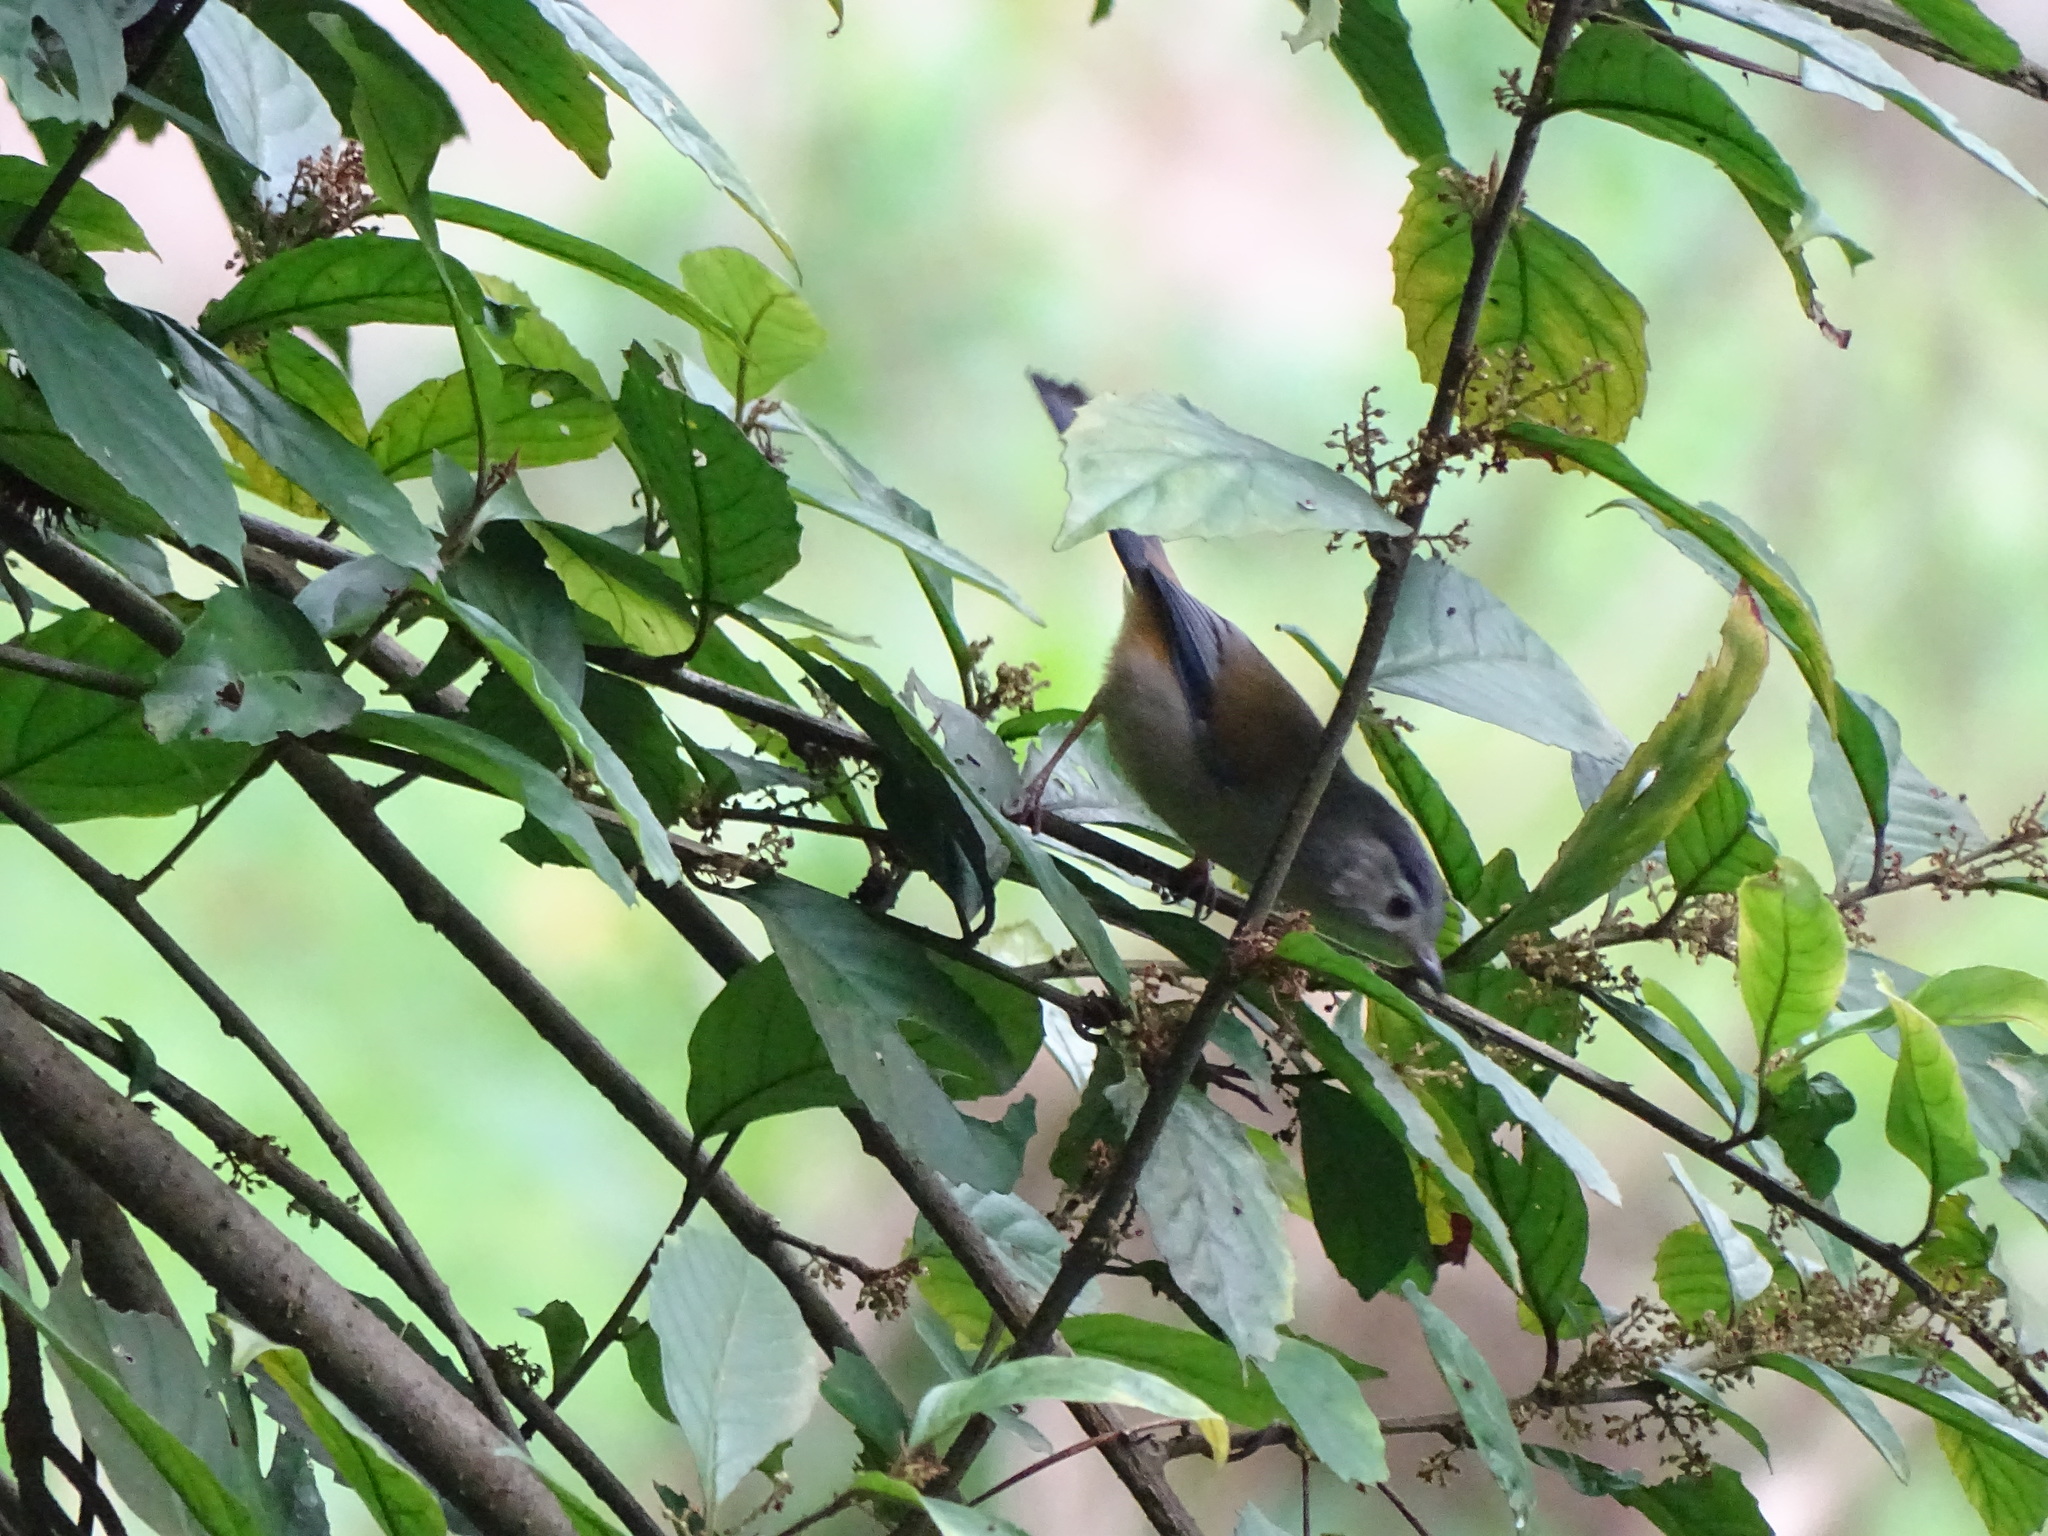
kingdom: Animalia
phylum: Chordata
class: Aves
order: Passeriformes
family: Leiothrichidae
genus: Minla
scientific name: Minla cyanouroptera
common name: Blue-winged minla
